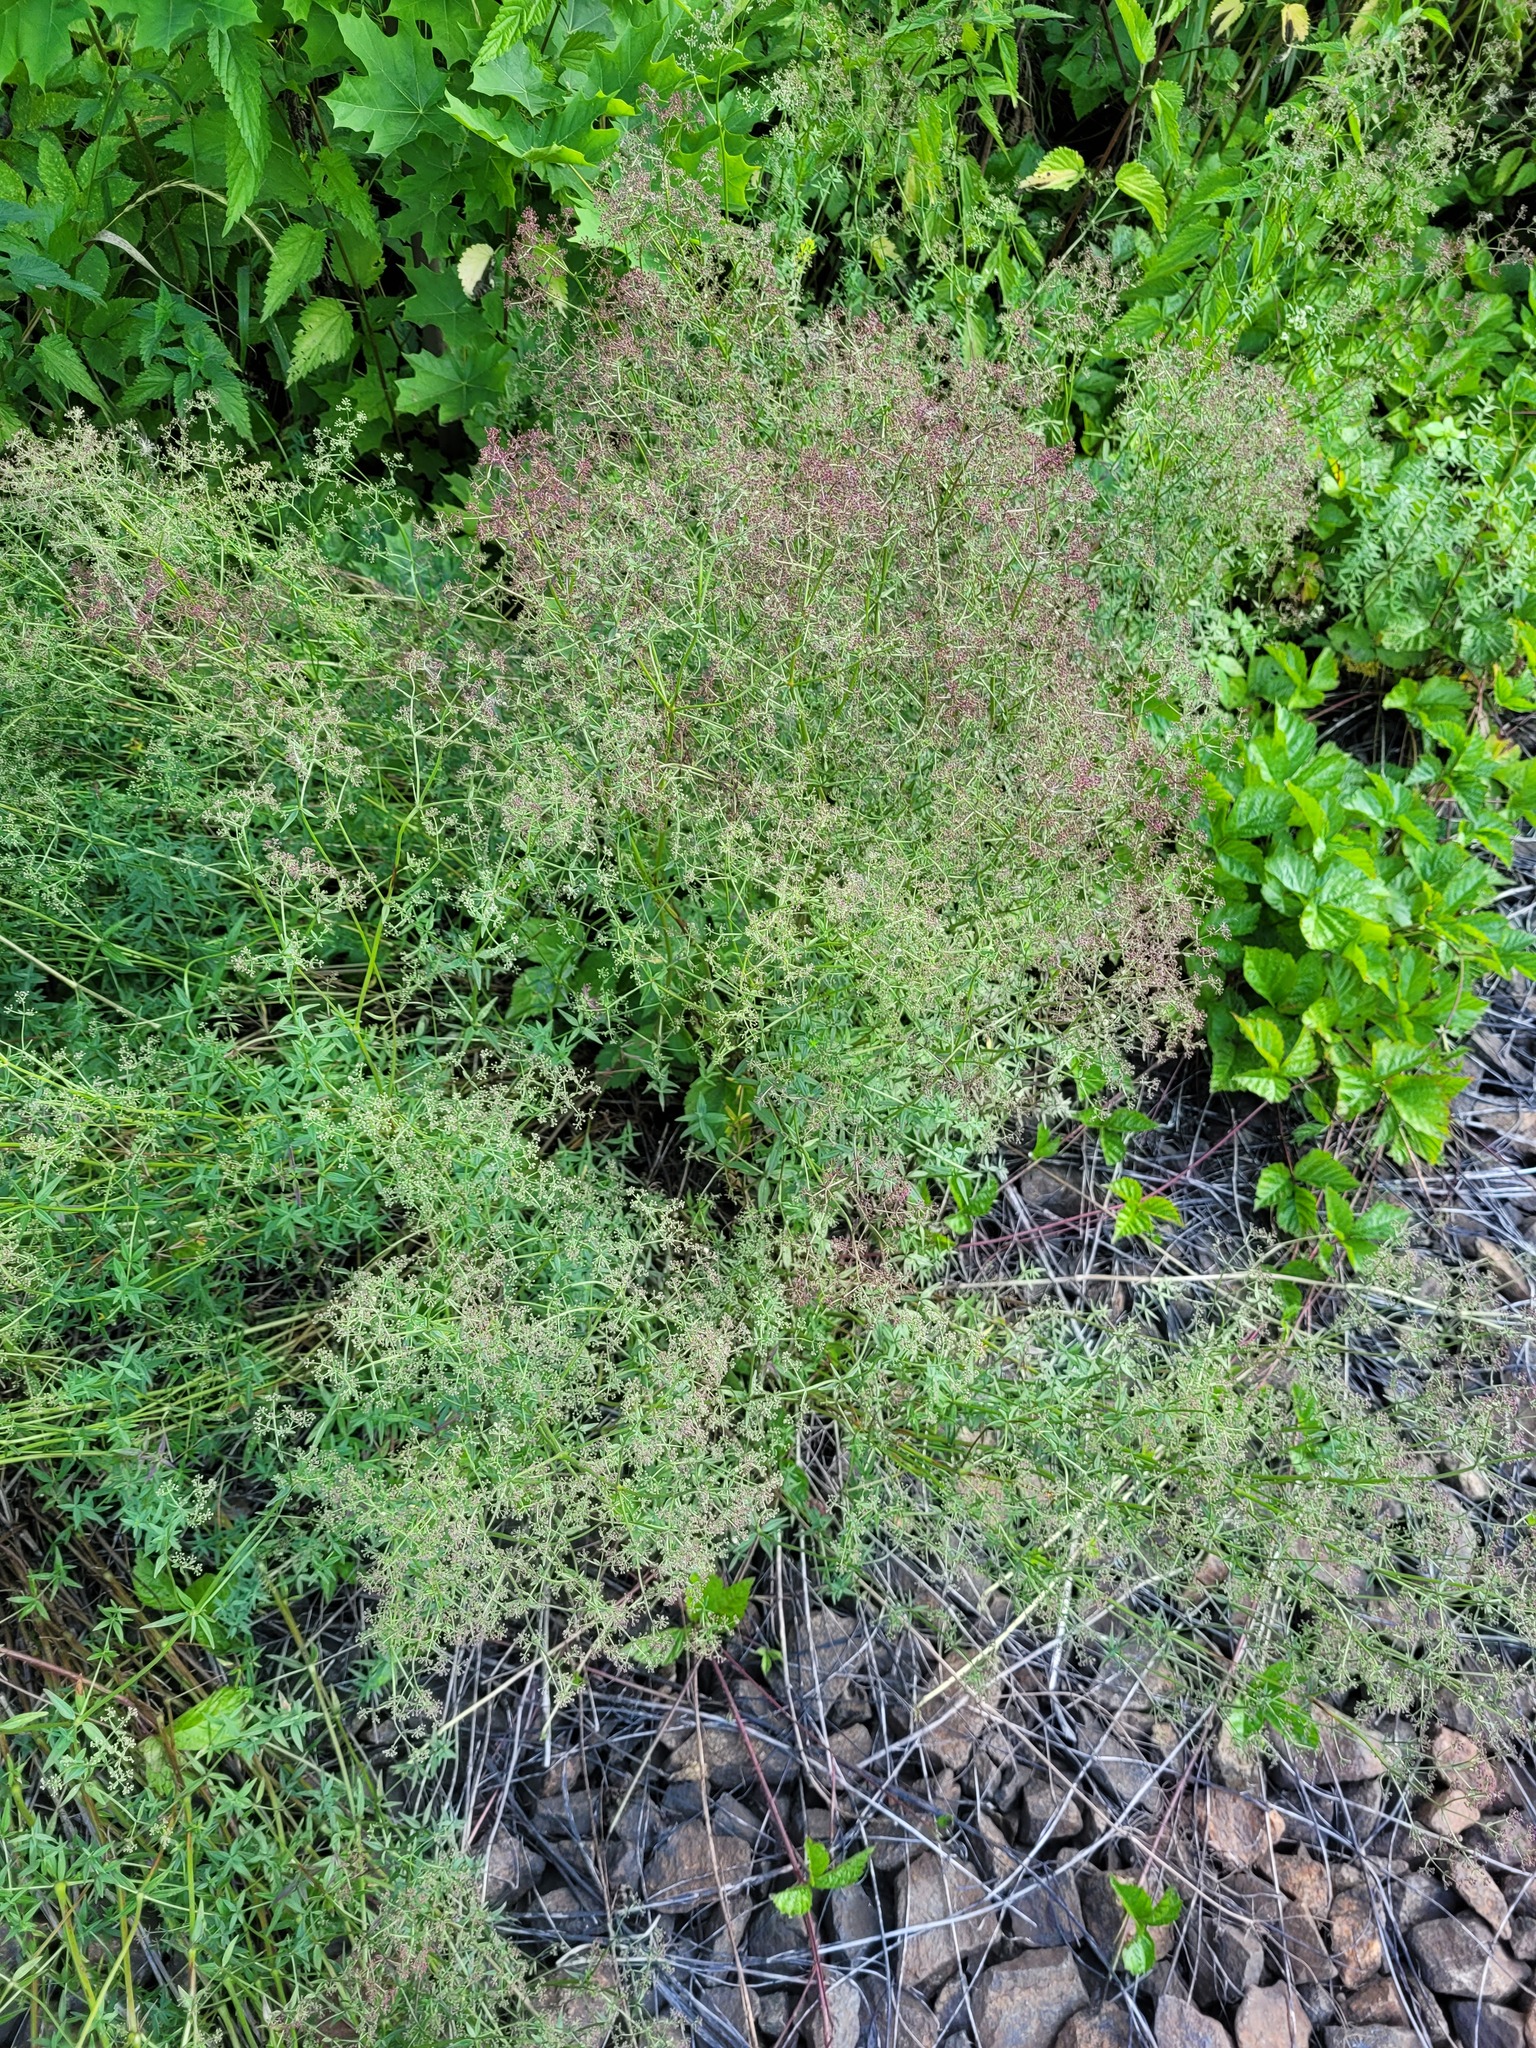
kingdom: Plantae
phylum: Tracheophyta
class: Magnoliopsida
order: Gentianales
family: Rubiaceae
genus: Galium
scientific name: Galium boreale
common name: Northern bedstraw
